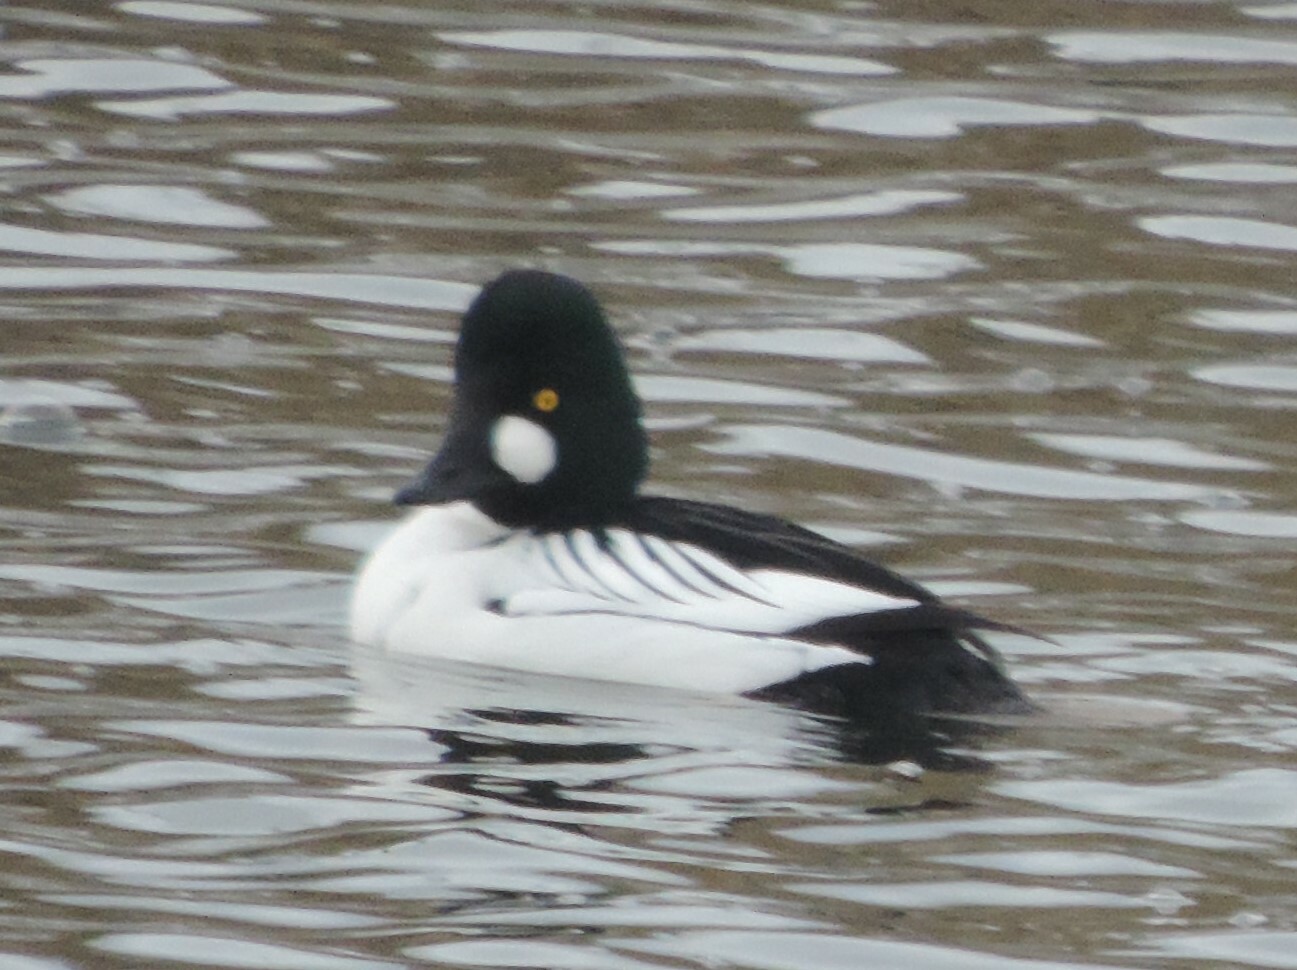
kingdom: Animalia
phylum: Chordata
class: Aves
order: Anseriformes
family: Anatidae
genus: Bucephala
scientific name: Bucephala clangula
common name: Common goldeneye
